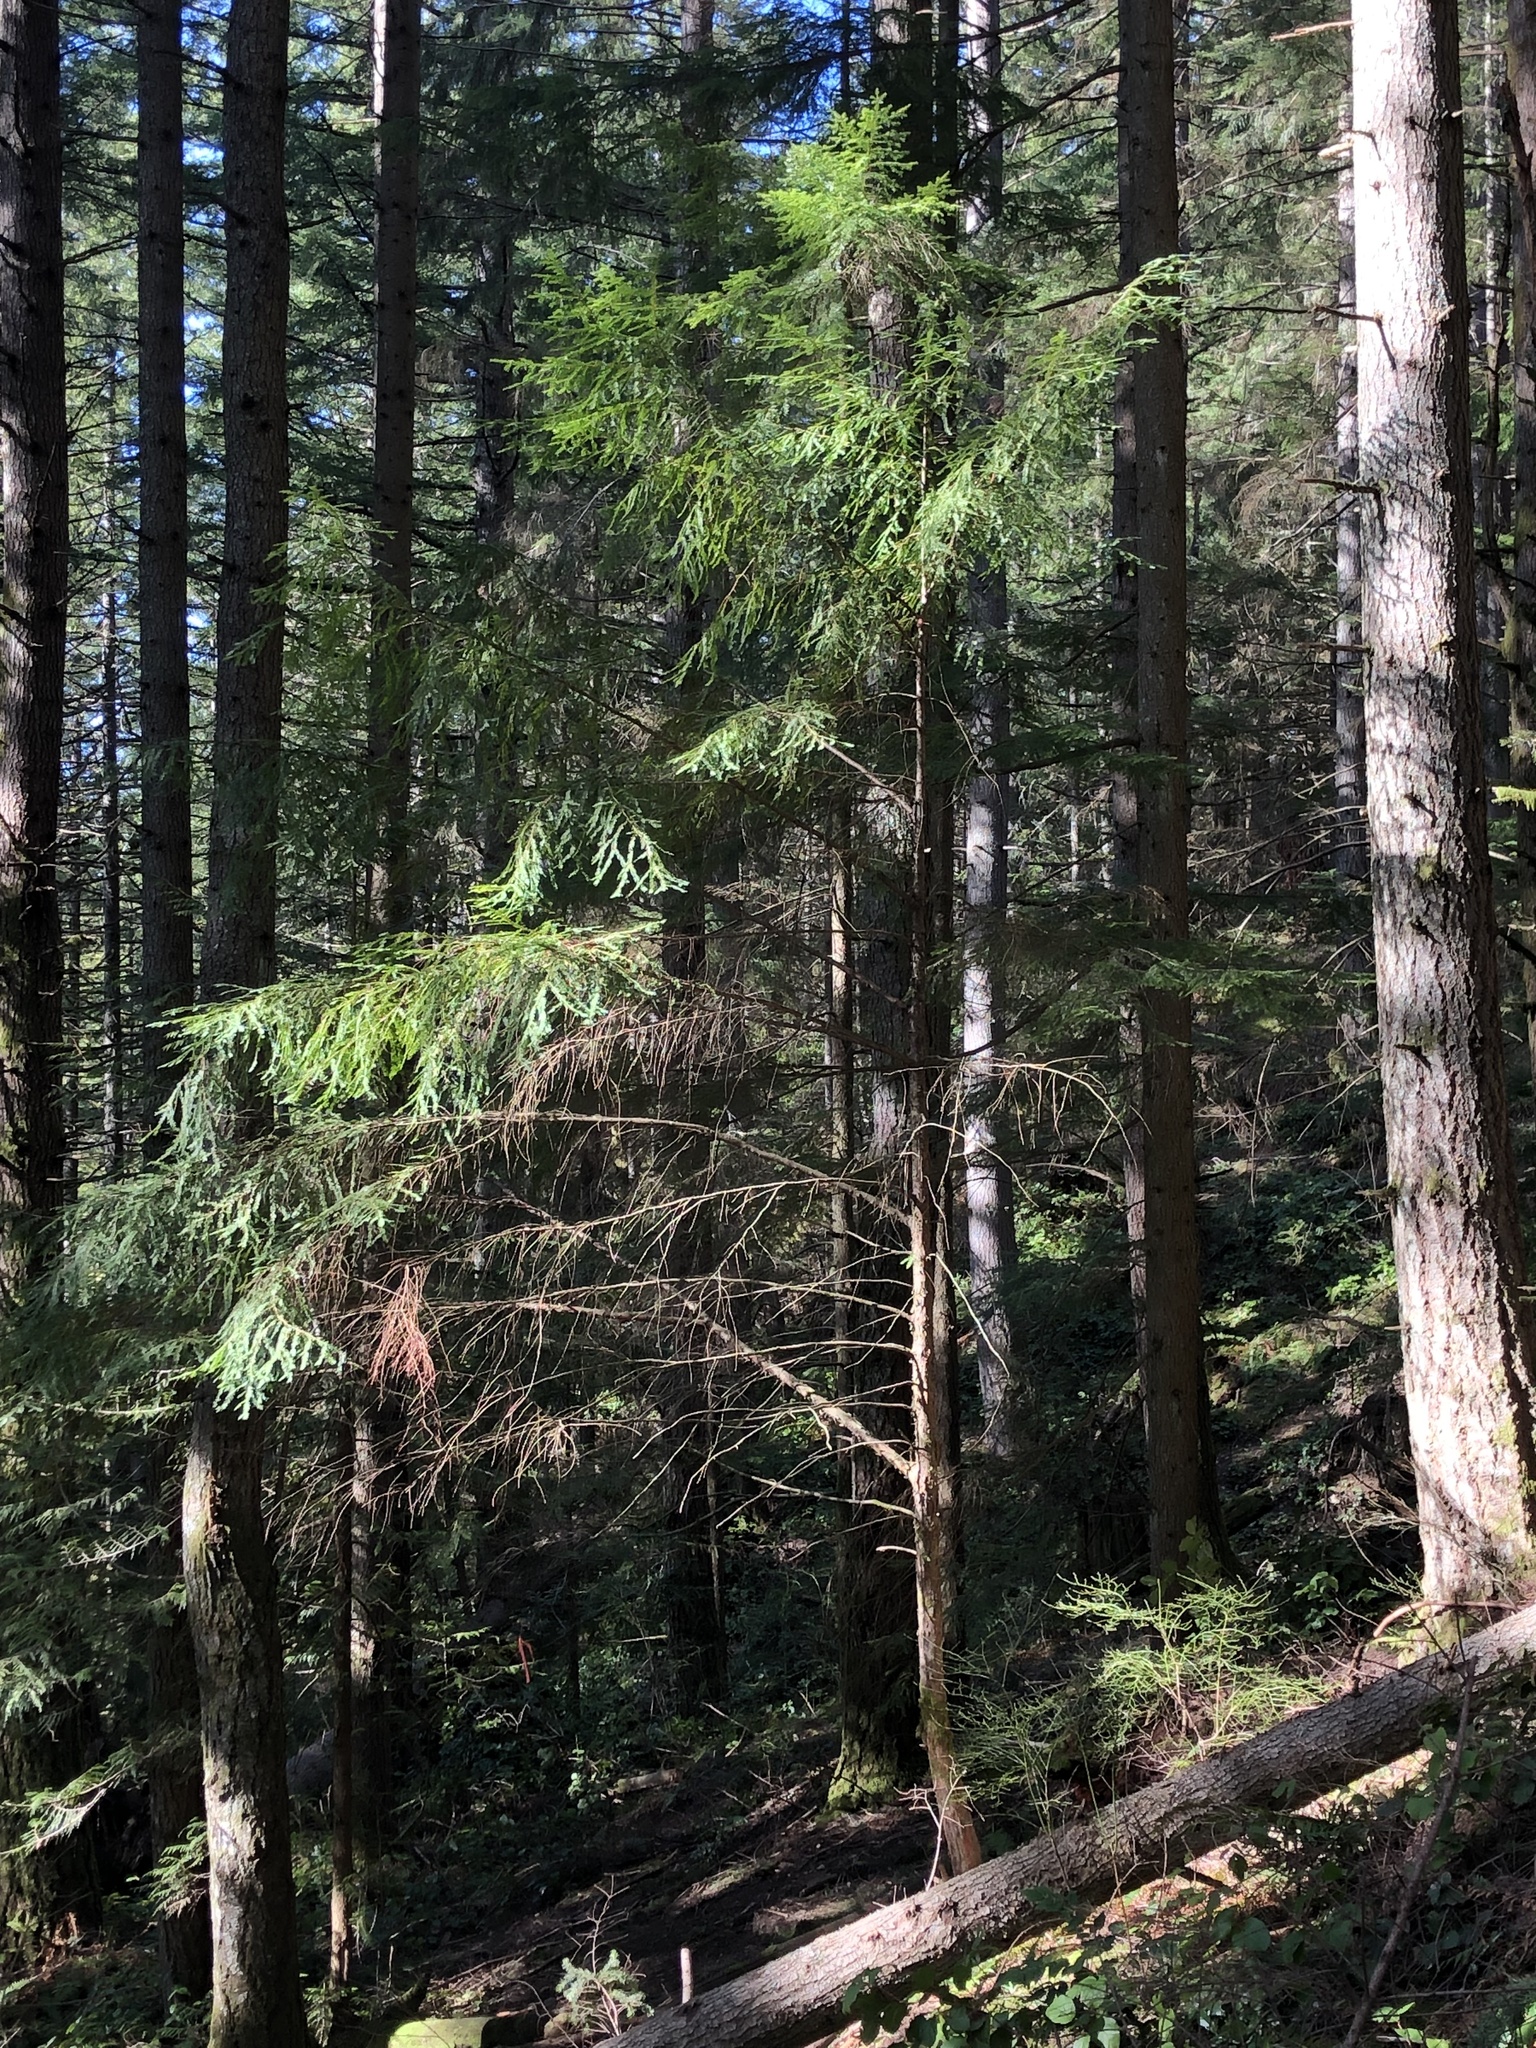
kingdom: Plantae
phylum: Tracheophyta
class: Pinopsida
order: Pinales
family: Taxaceae
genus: Taxus
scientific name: Taxus brevifolia
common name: Pacific yew
